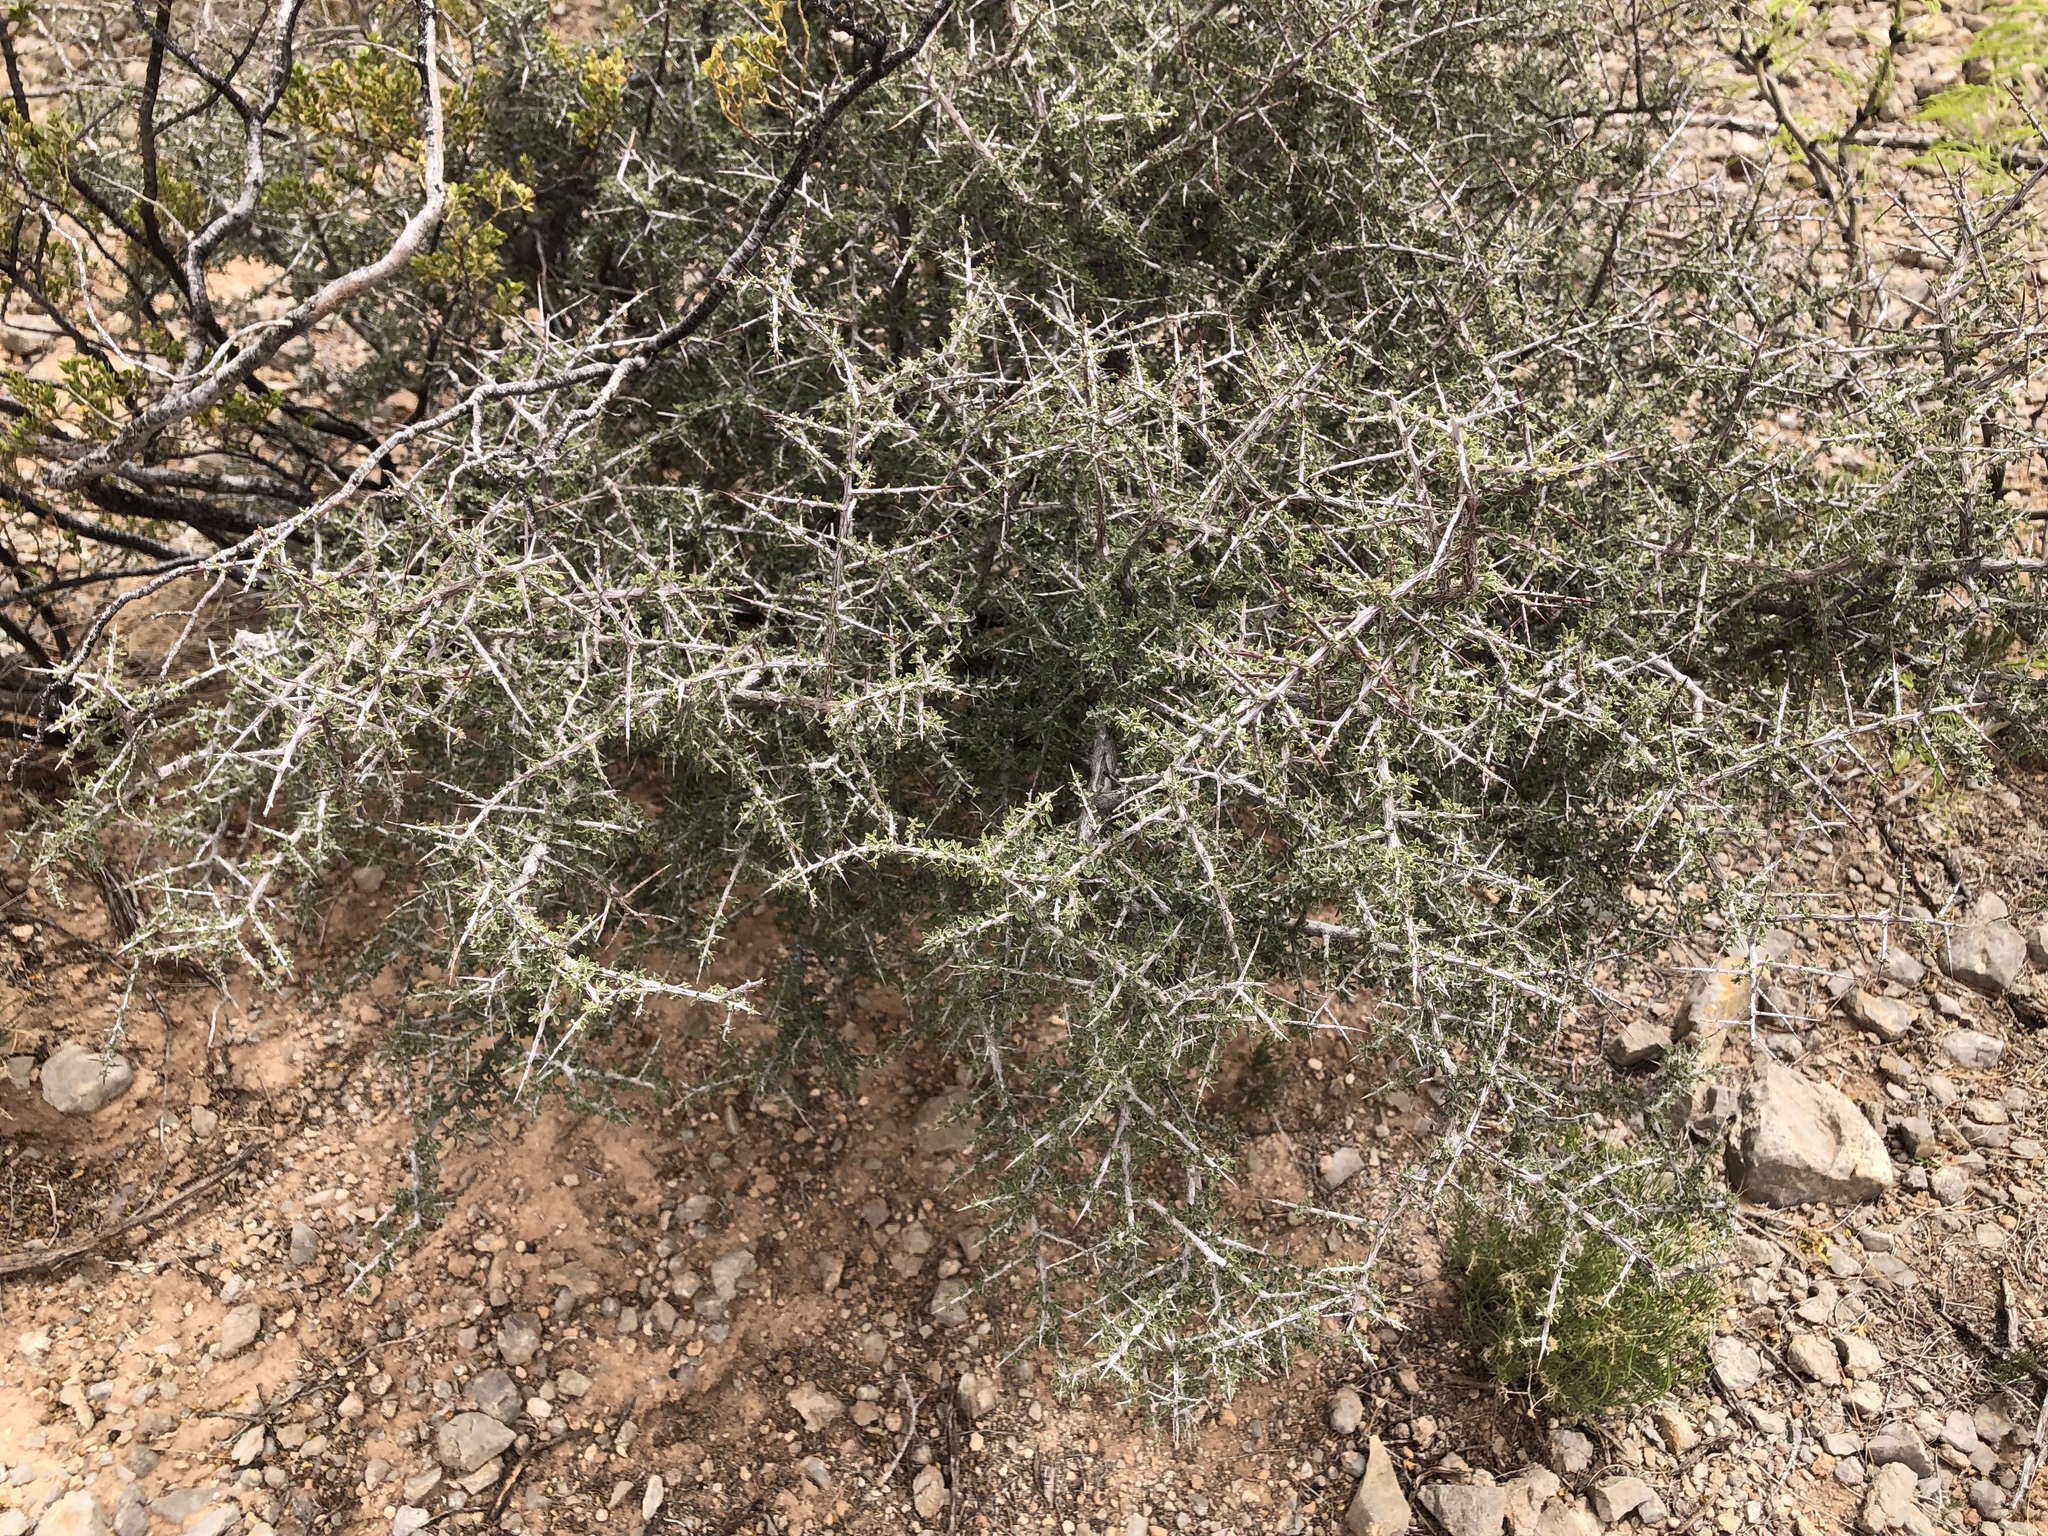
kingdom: Plantae
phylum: Tracheophyta
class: Magnoliopsida
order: Rosales
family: Rhamnaceae
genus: Condalia
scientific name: Condalia warnockii
